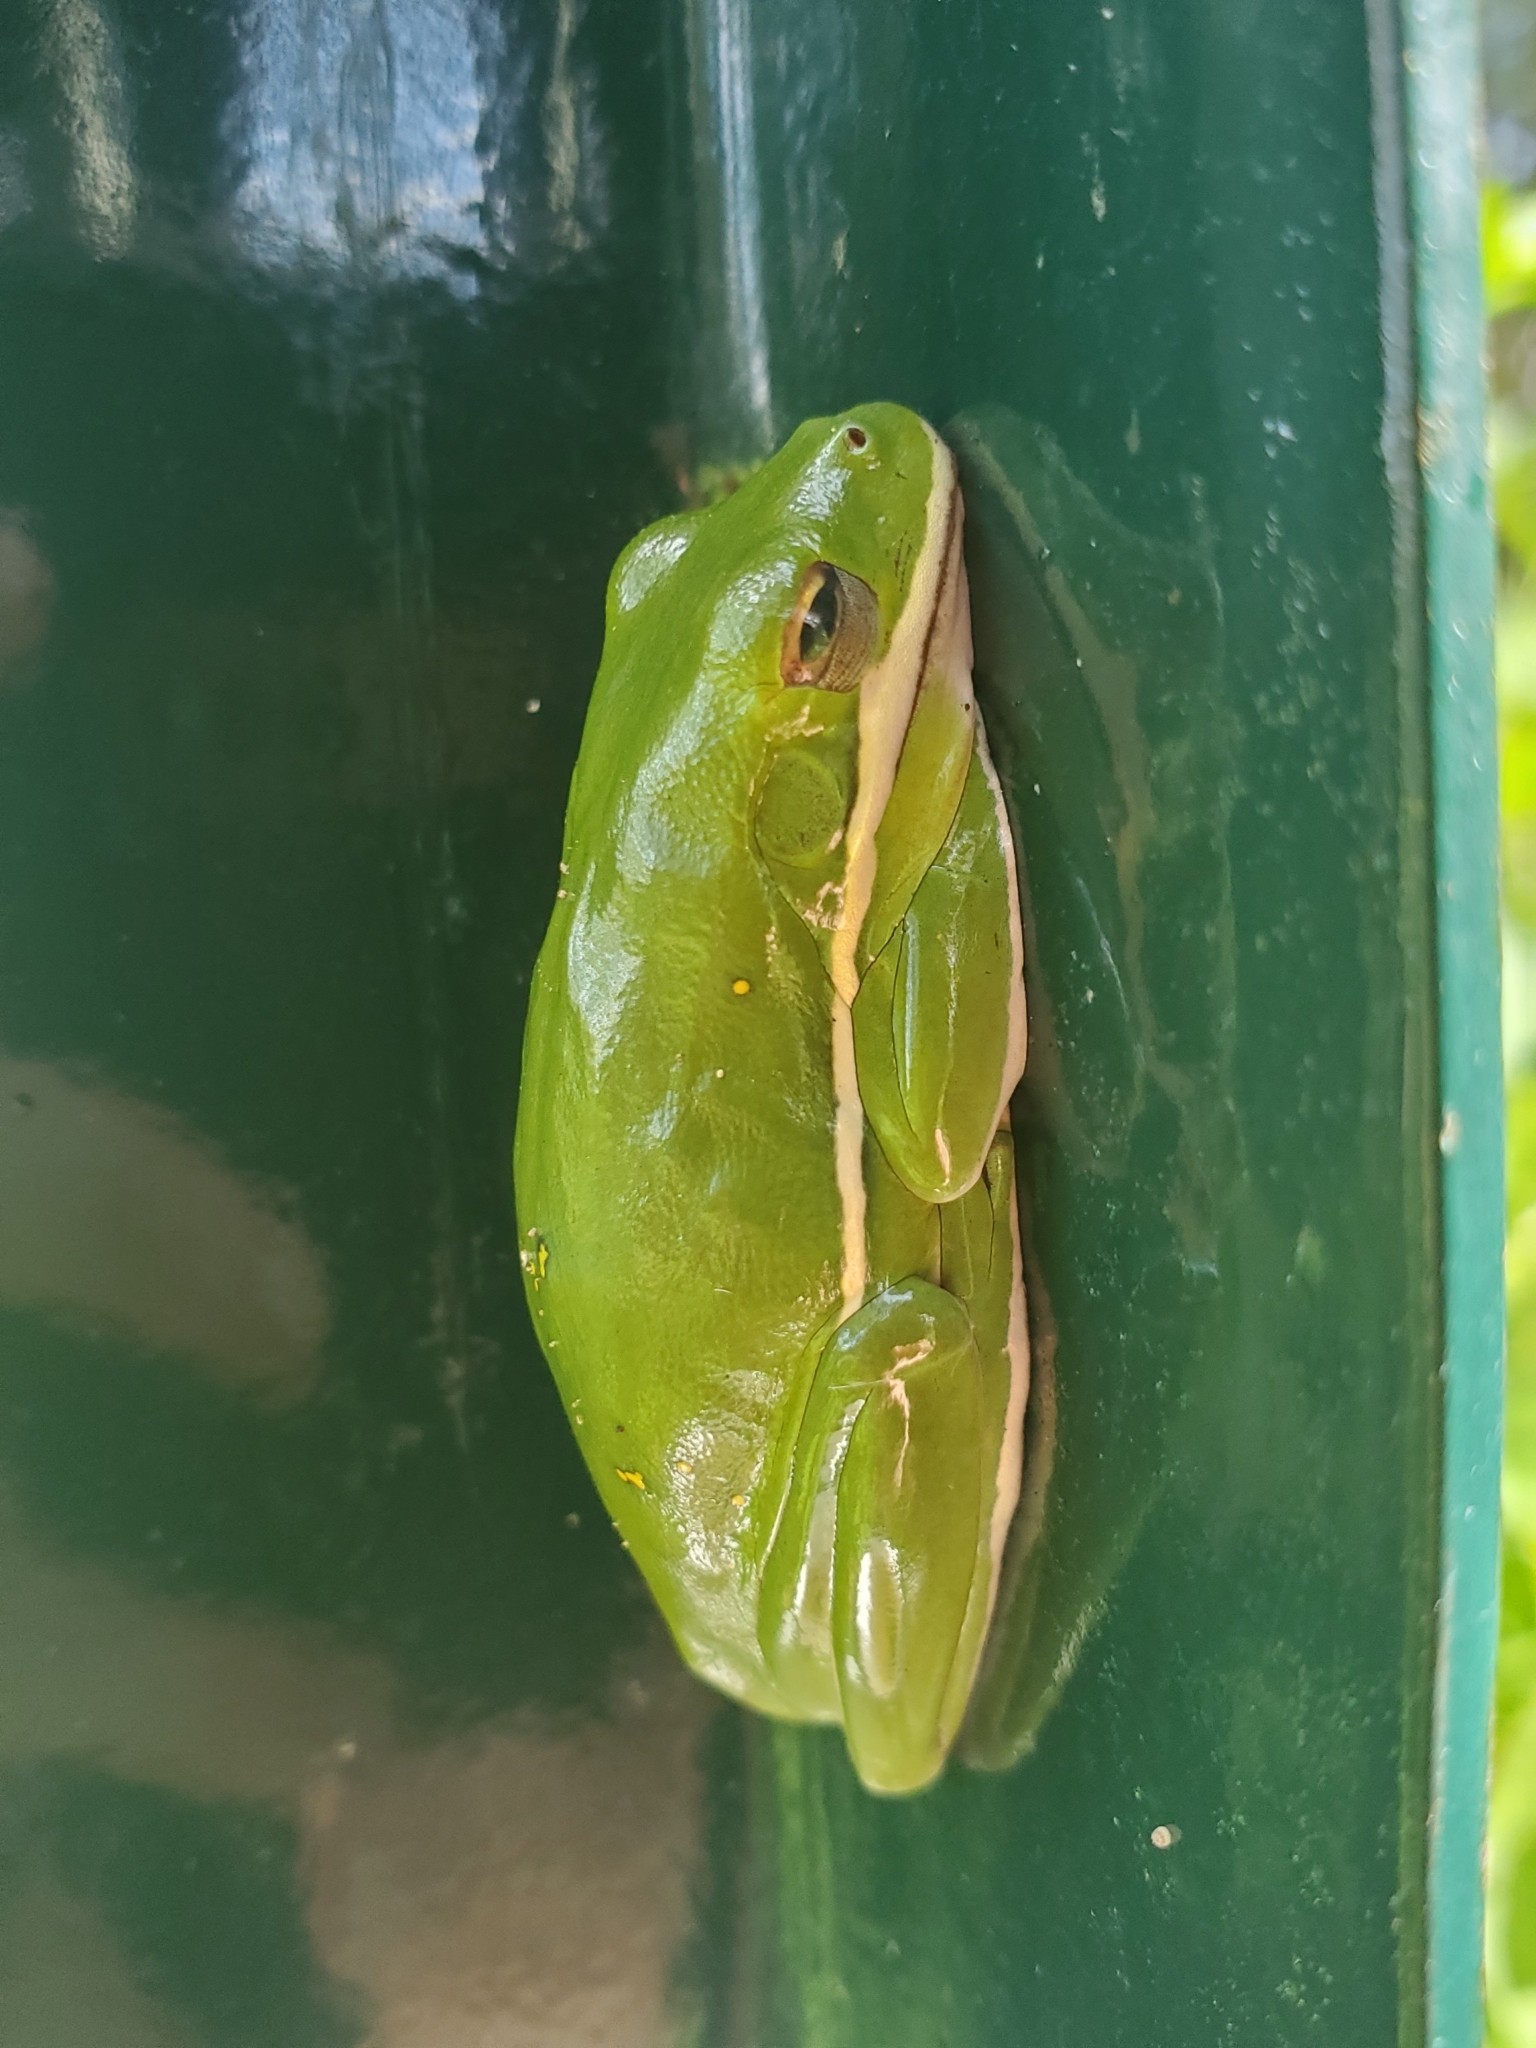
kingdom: Animalia
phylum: Chordata
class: Amphibia
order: Anura
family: Hylidae
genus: Dryophytes
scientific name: Dryophytes cinereus
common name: Green treefrog
